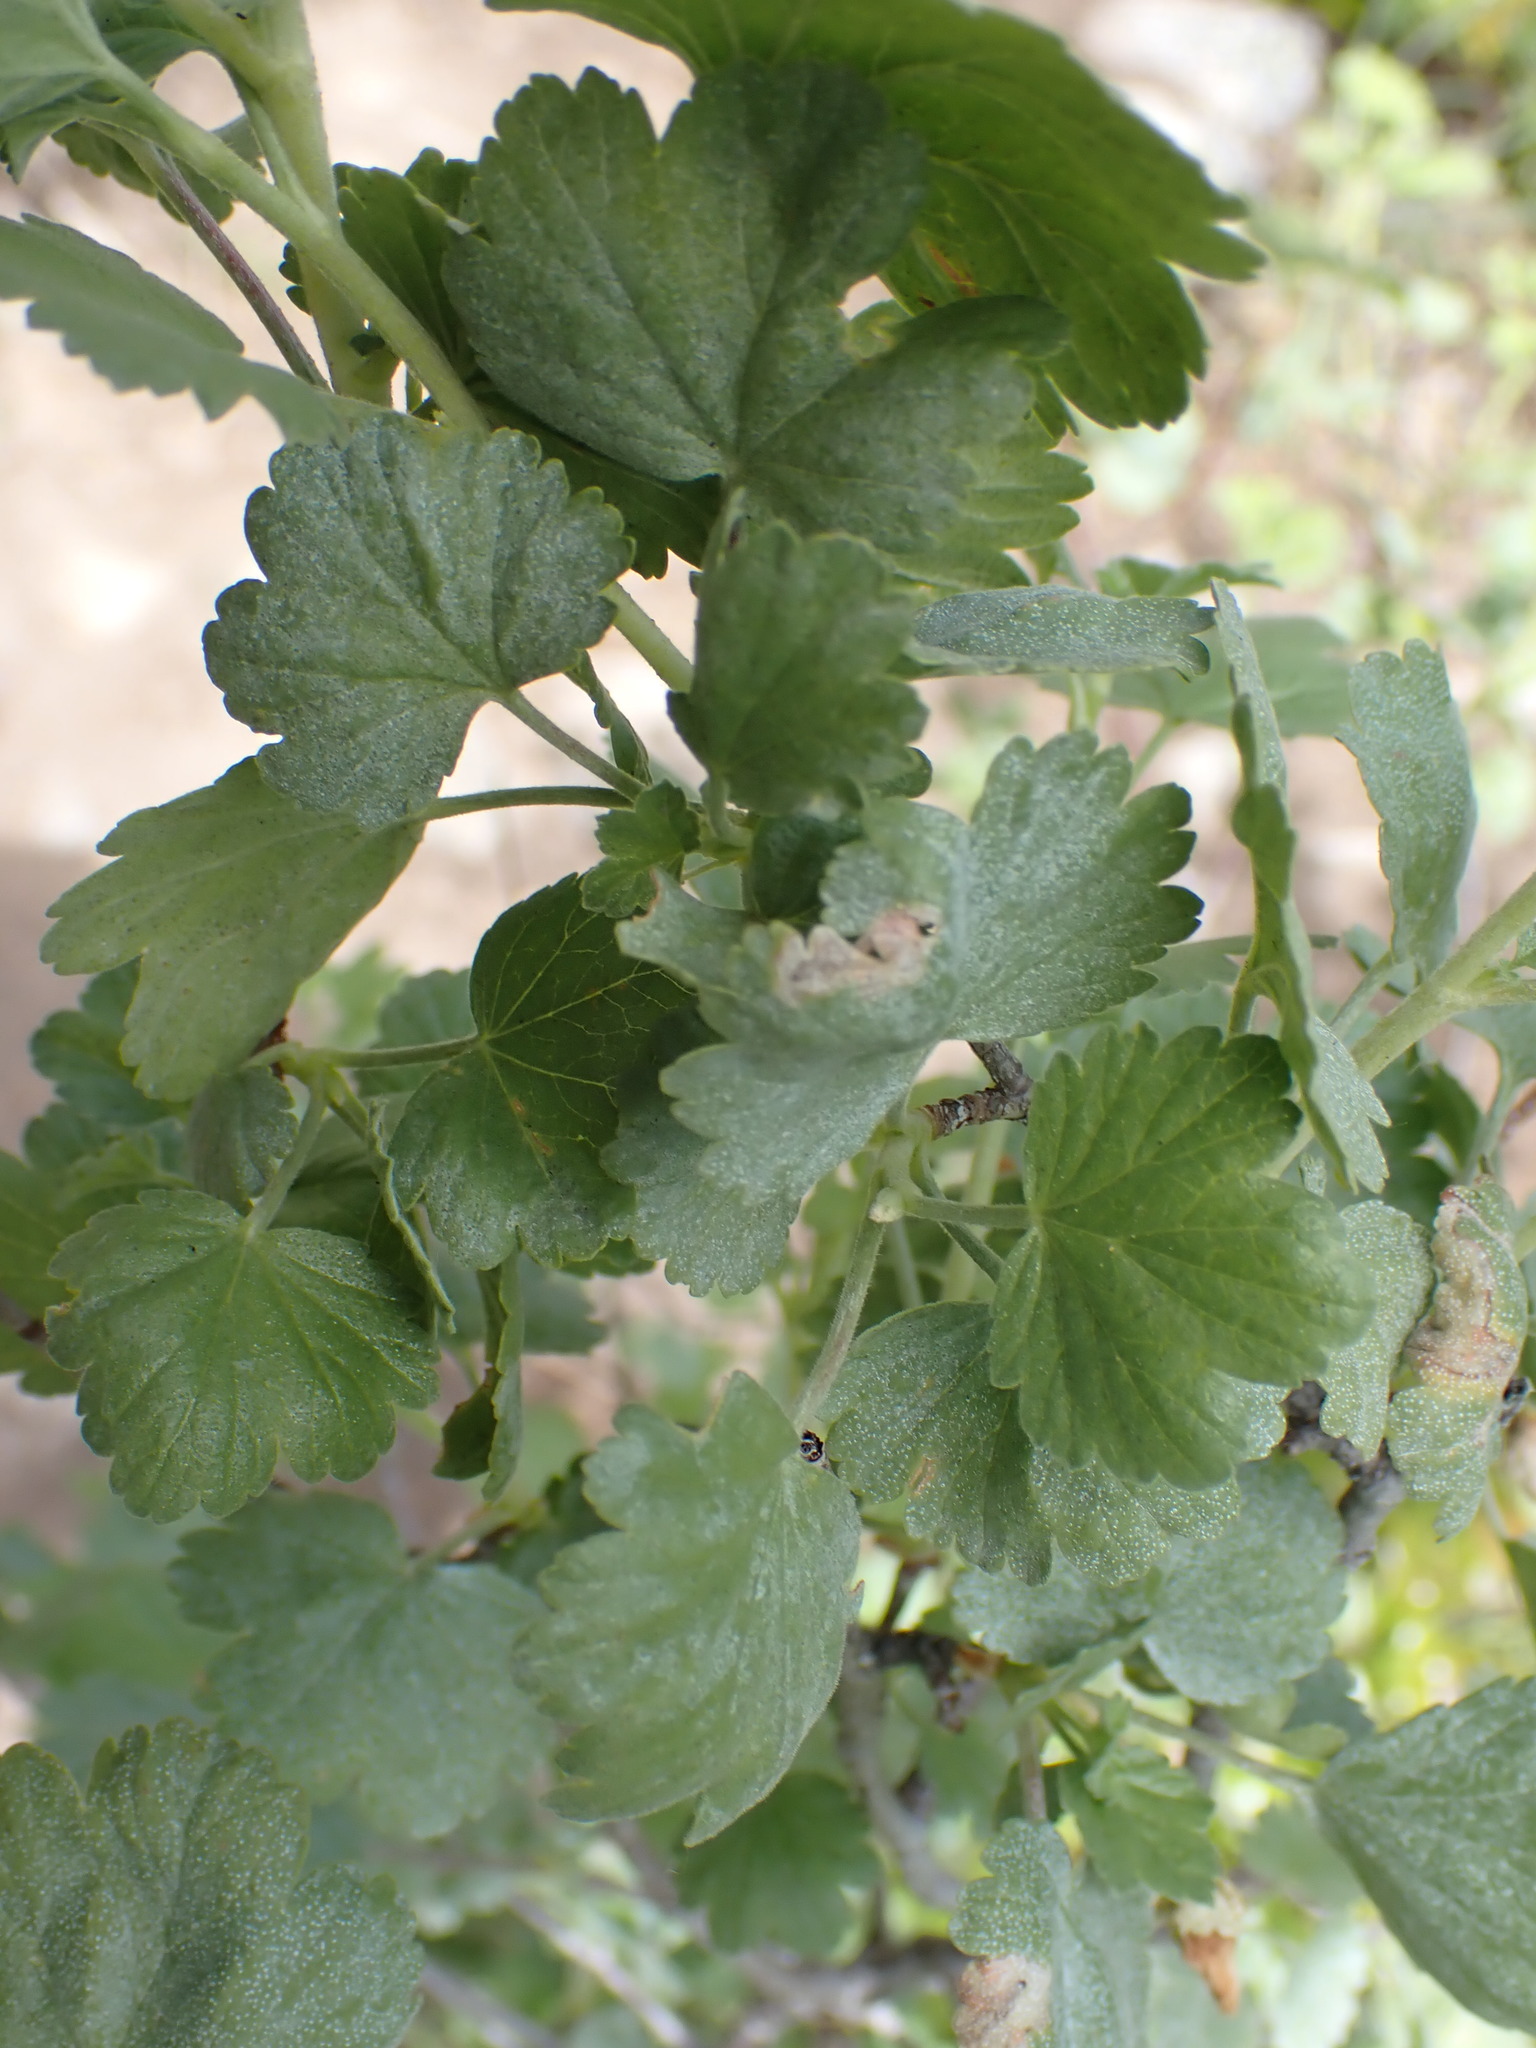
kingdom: Plantae
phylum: Tracheophyta
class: Magnoliopsida
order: Saxifragales
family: Grossulariaceae
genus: Ribes
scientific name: Ribes cereum
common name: Wax currant
